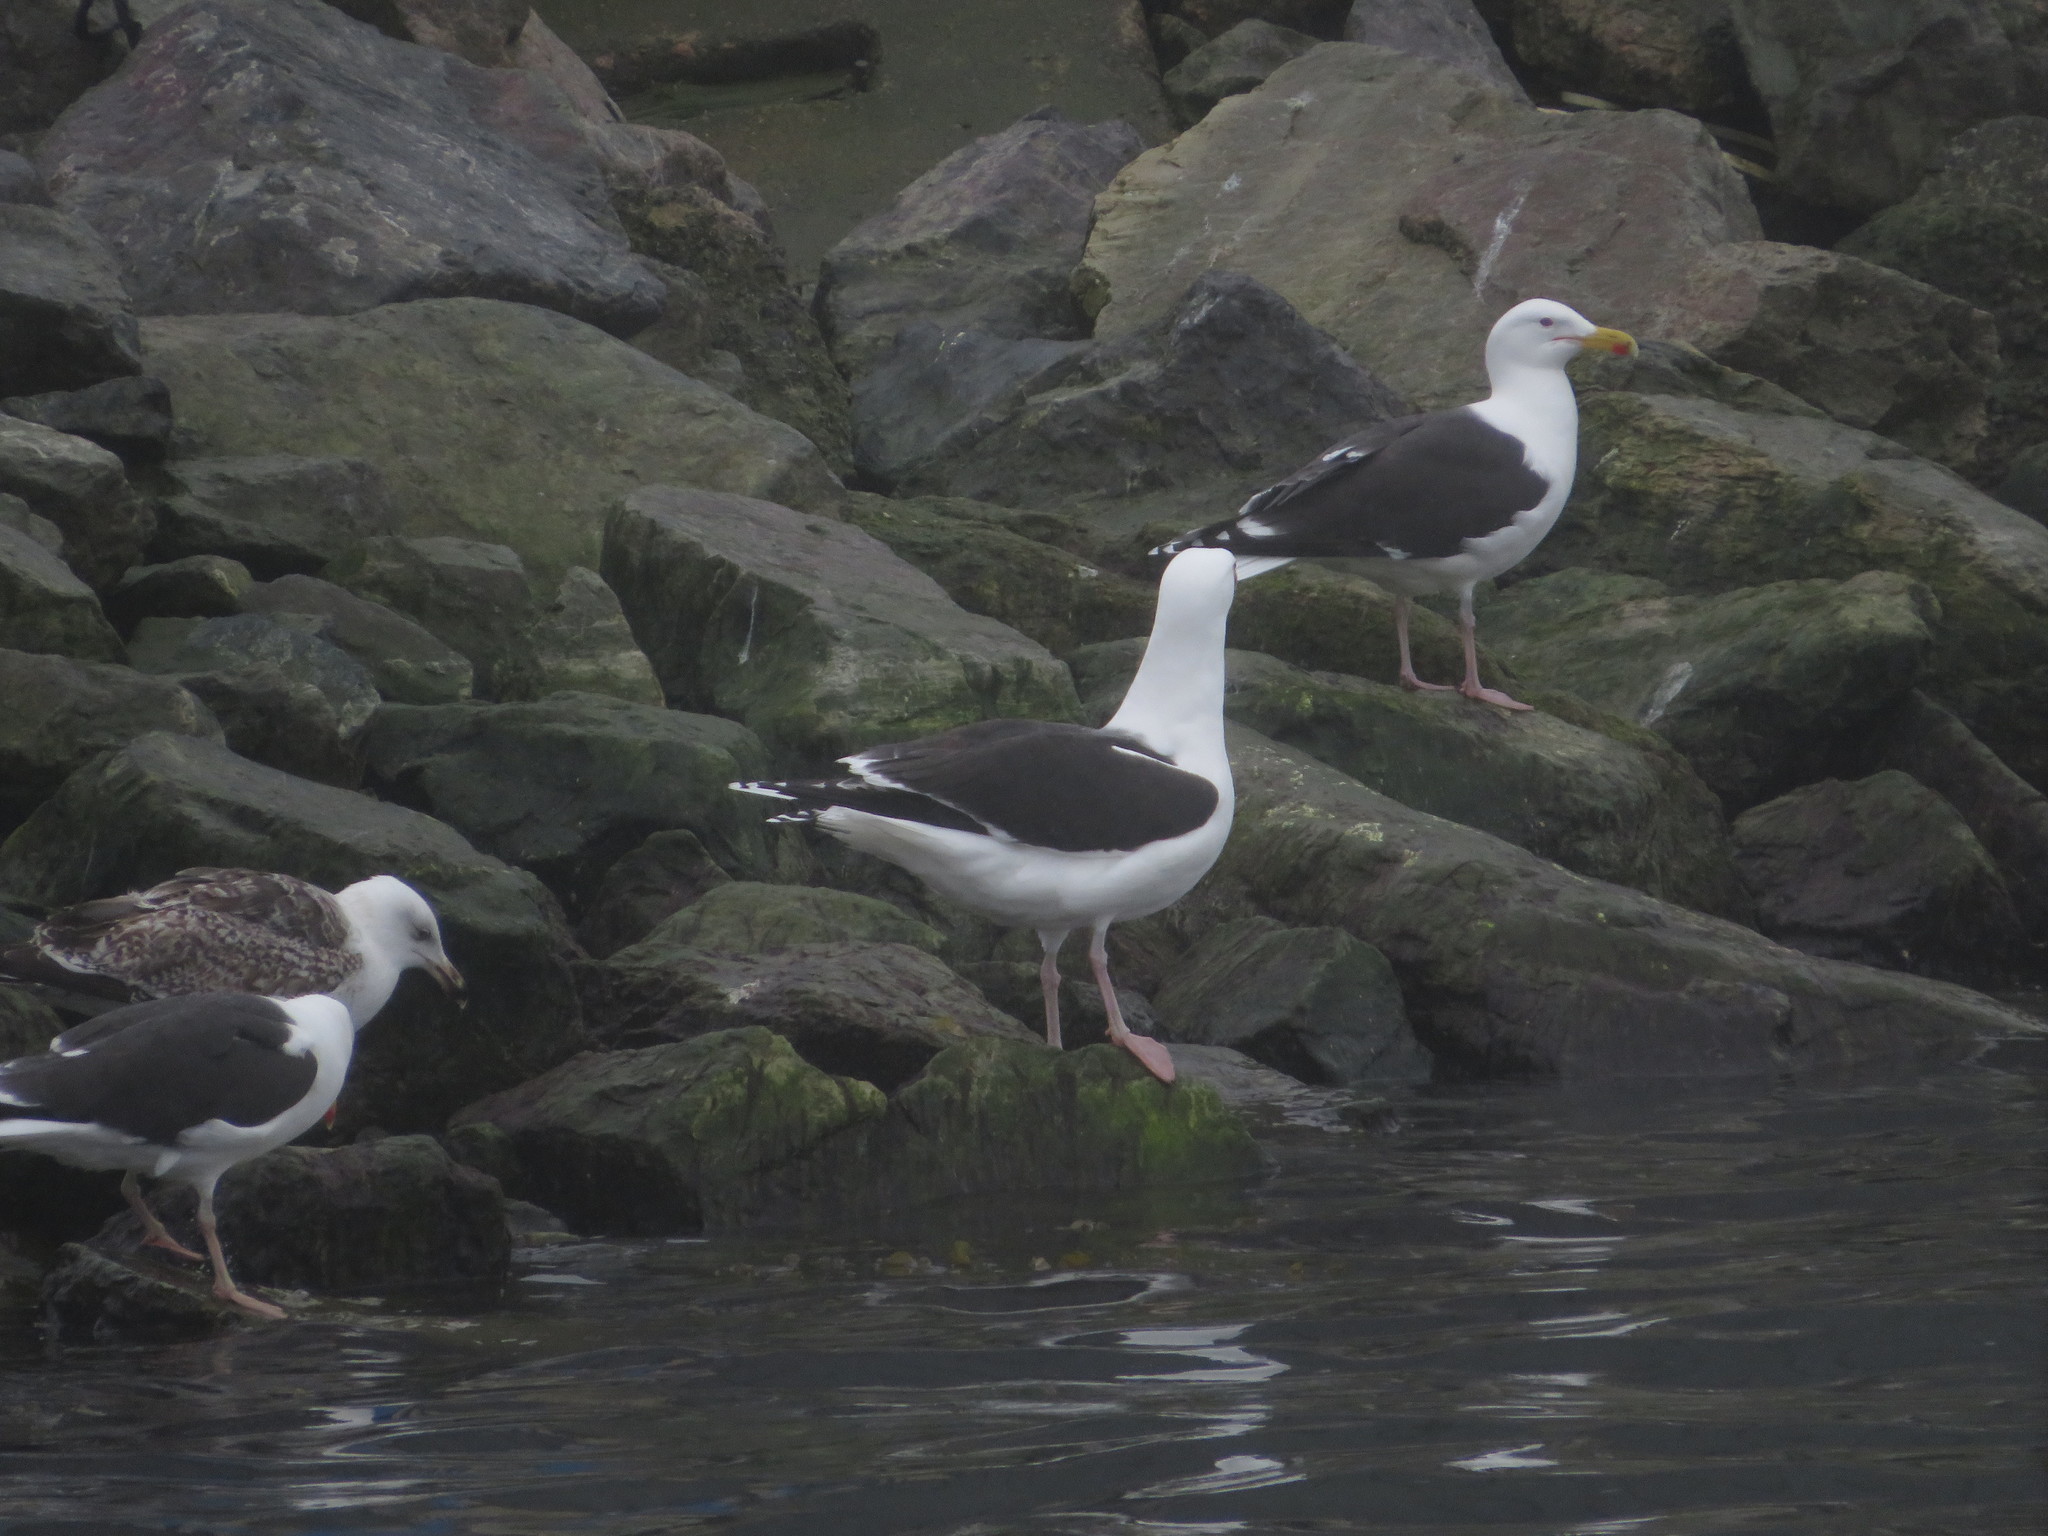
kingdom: Animalia
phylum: Chordata
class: Aves
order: Charadriiformes
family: Laridae
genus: Larus
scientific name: Larus marinus
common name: Great black-backed gull
